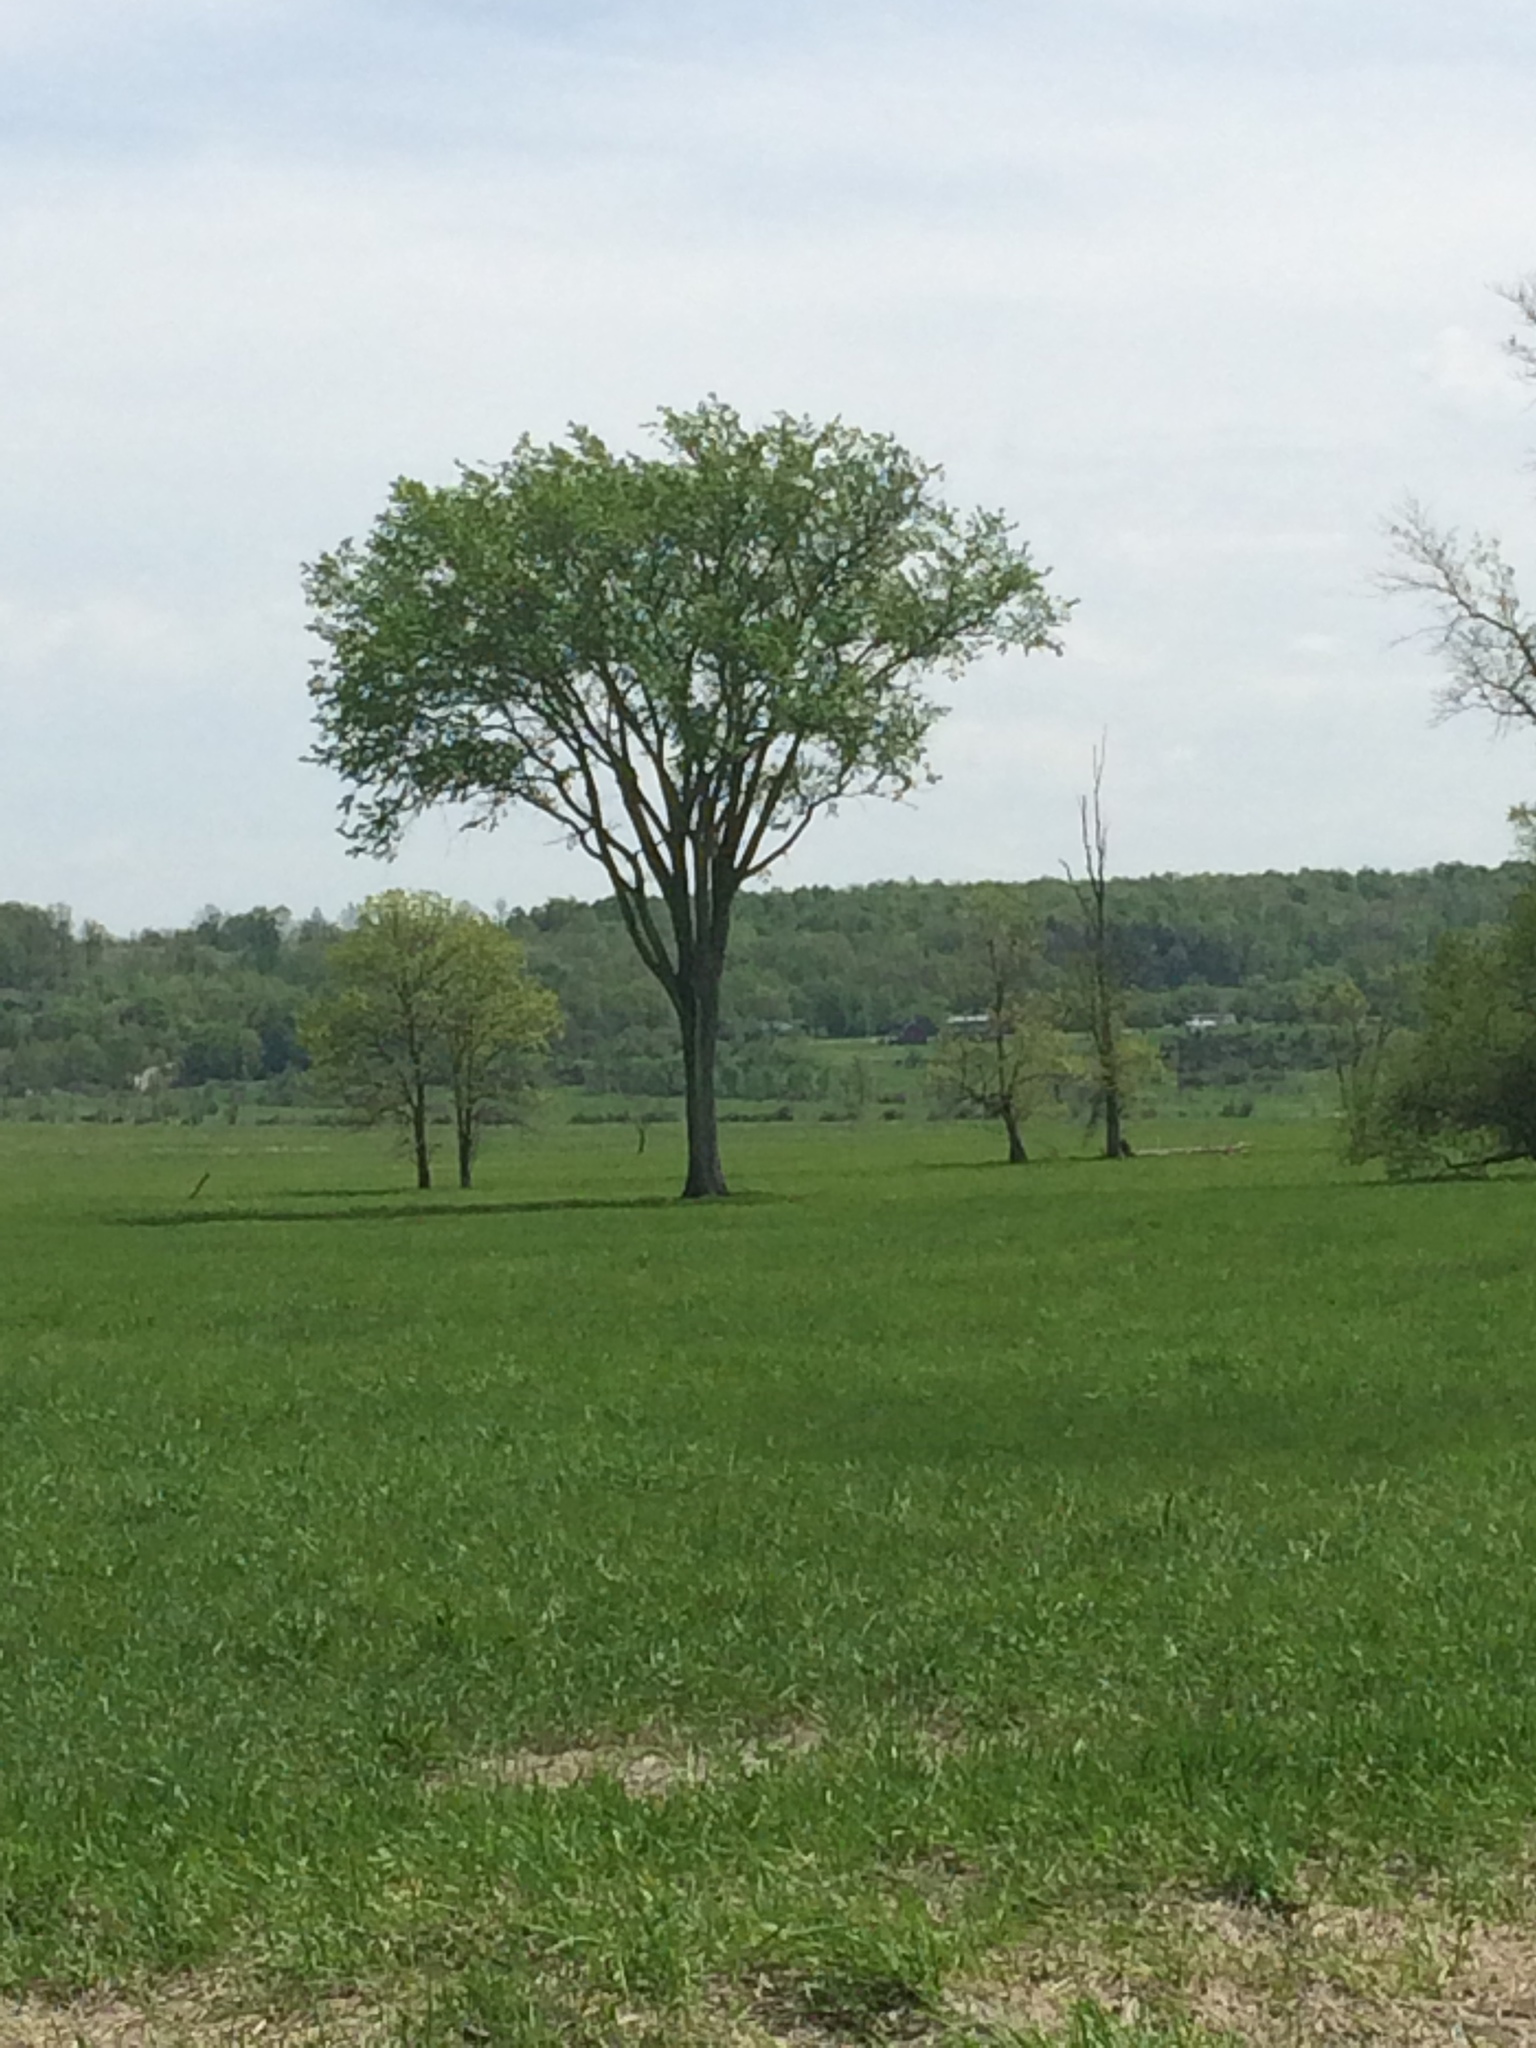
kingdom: Plantae
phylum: Tracheophyta
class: Magnoliopsida
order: Rosales
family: Ulmaceae
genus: Ulmus
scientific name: Ulmus americana
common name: American elm
